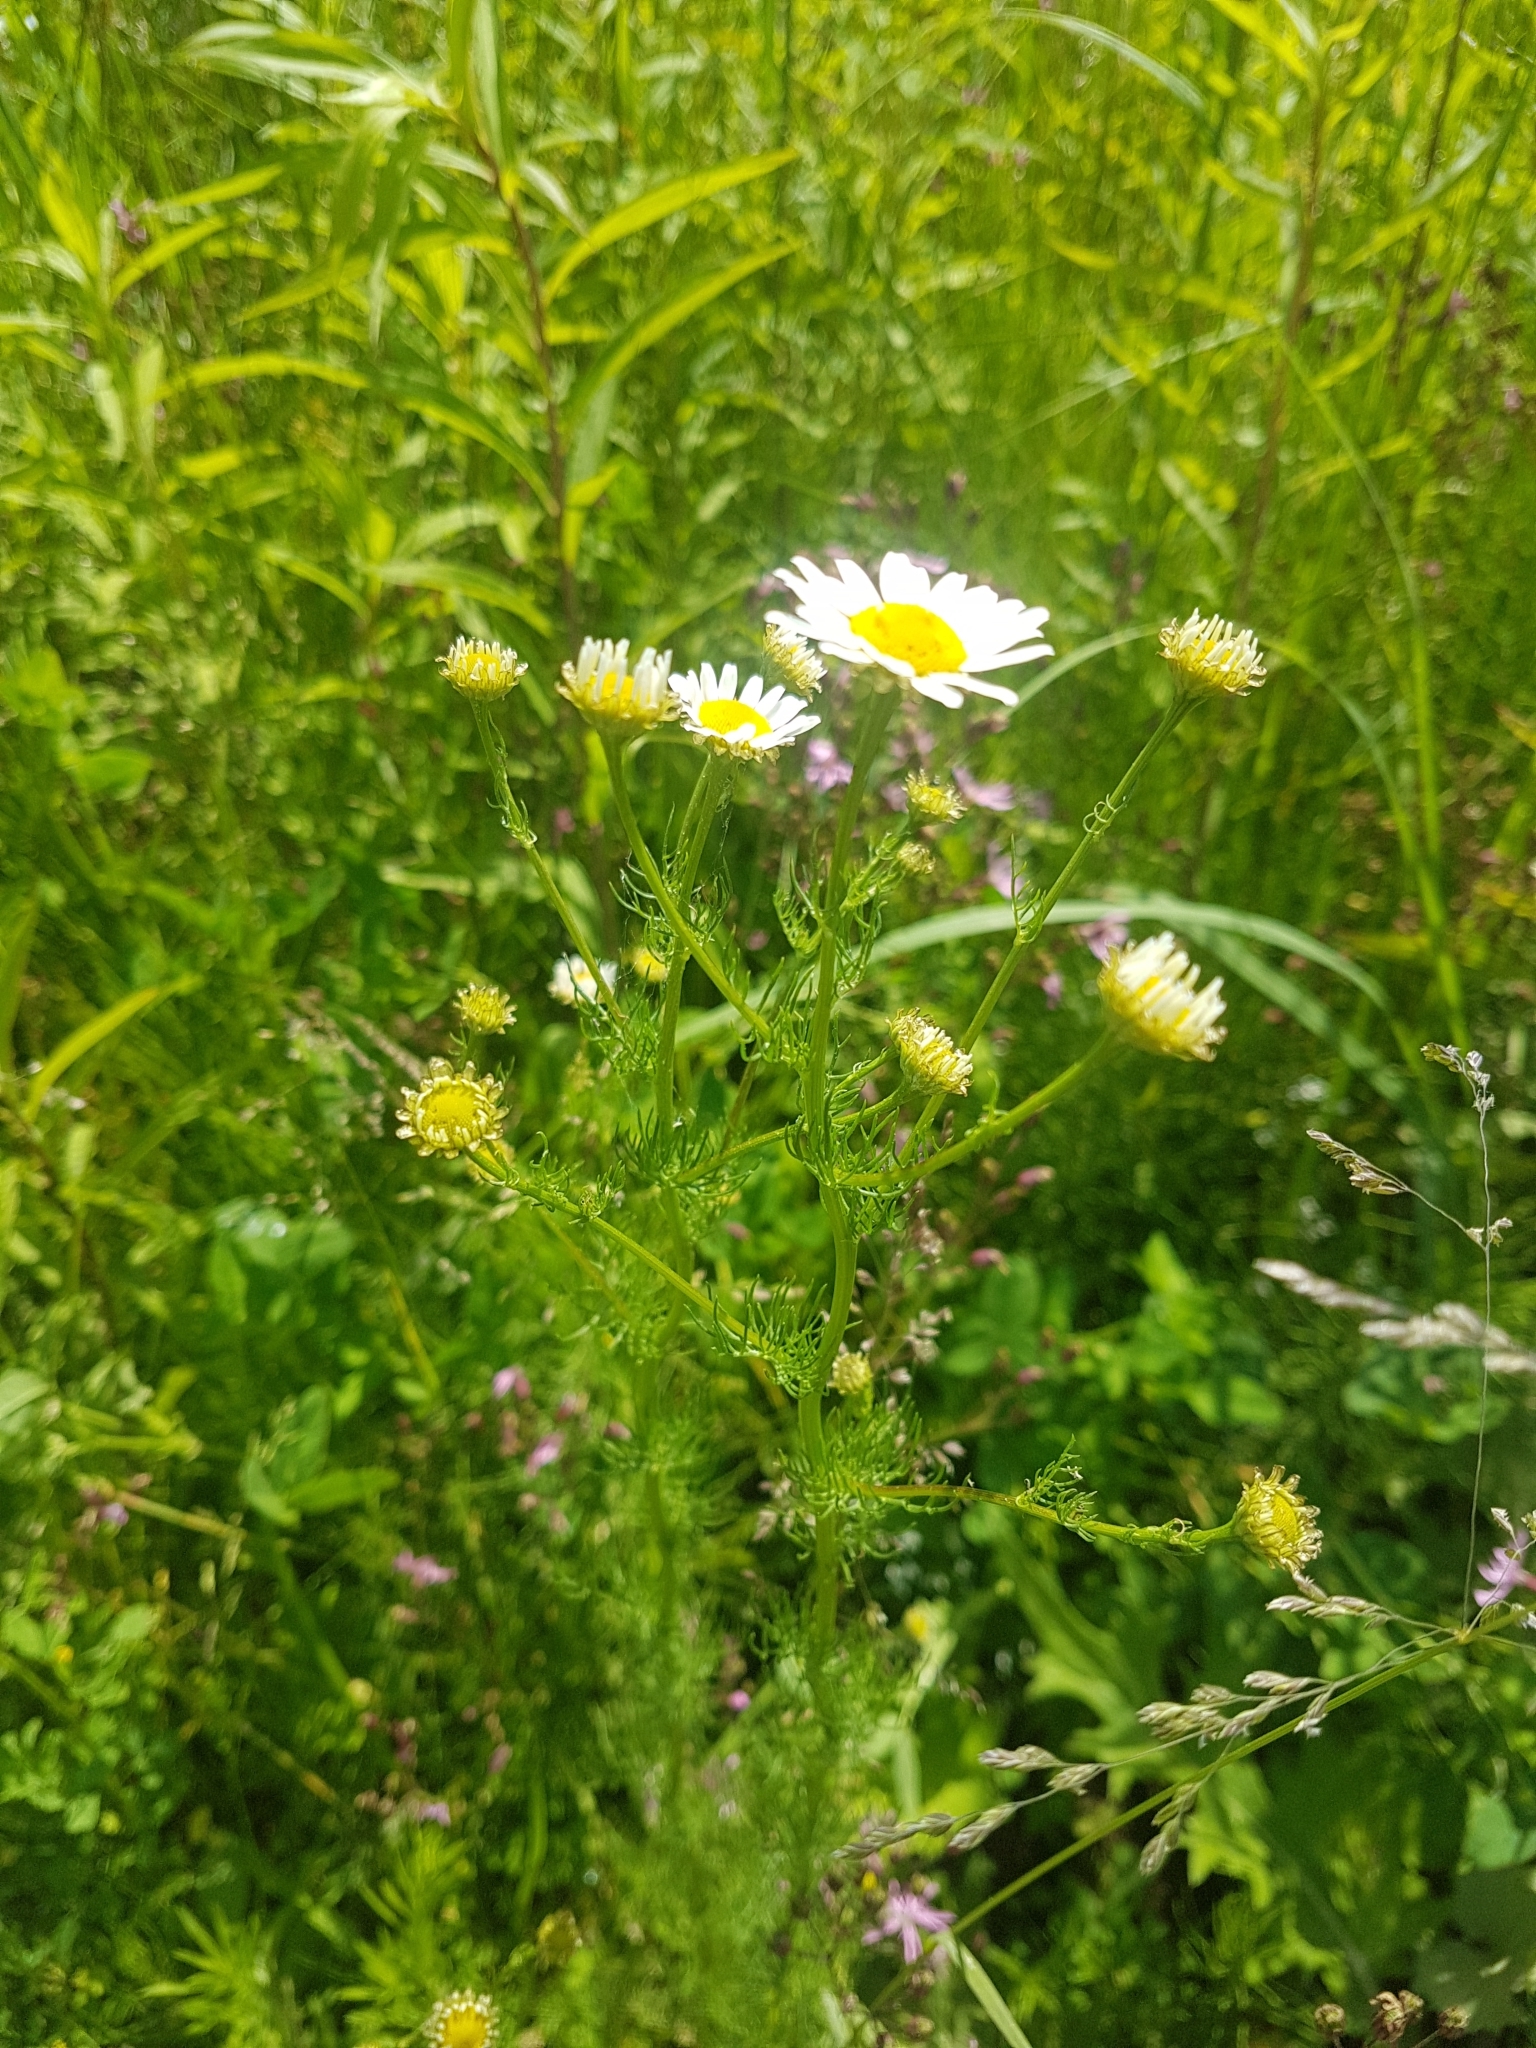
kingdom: Plantae
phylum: Tracheophyta
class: Magnoliopsida
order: Asterales
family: Asteraceae
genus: Tripleurospermum
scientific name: Tripleurospermum inodorum
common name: Scentless mayweed
